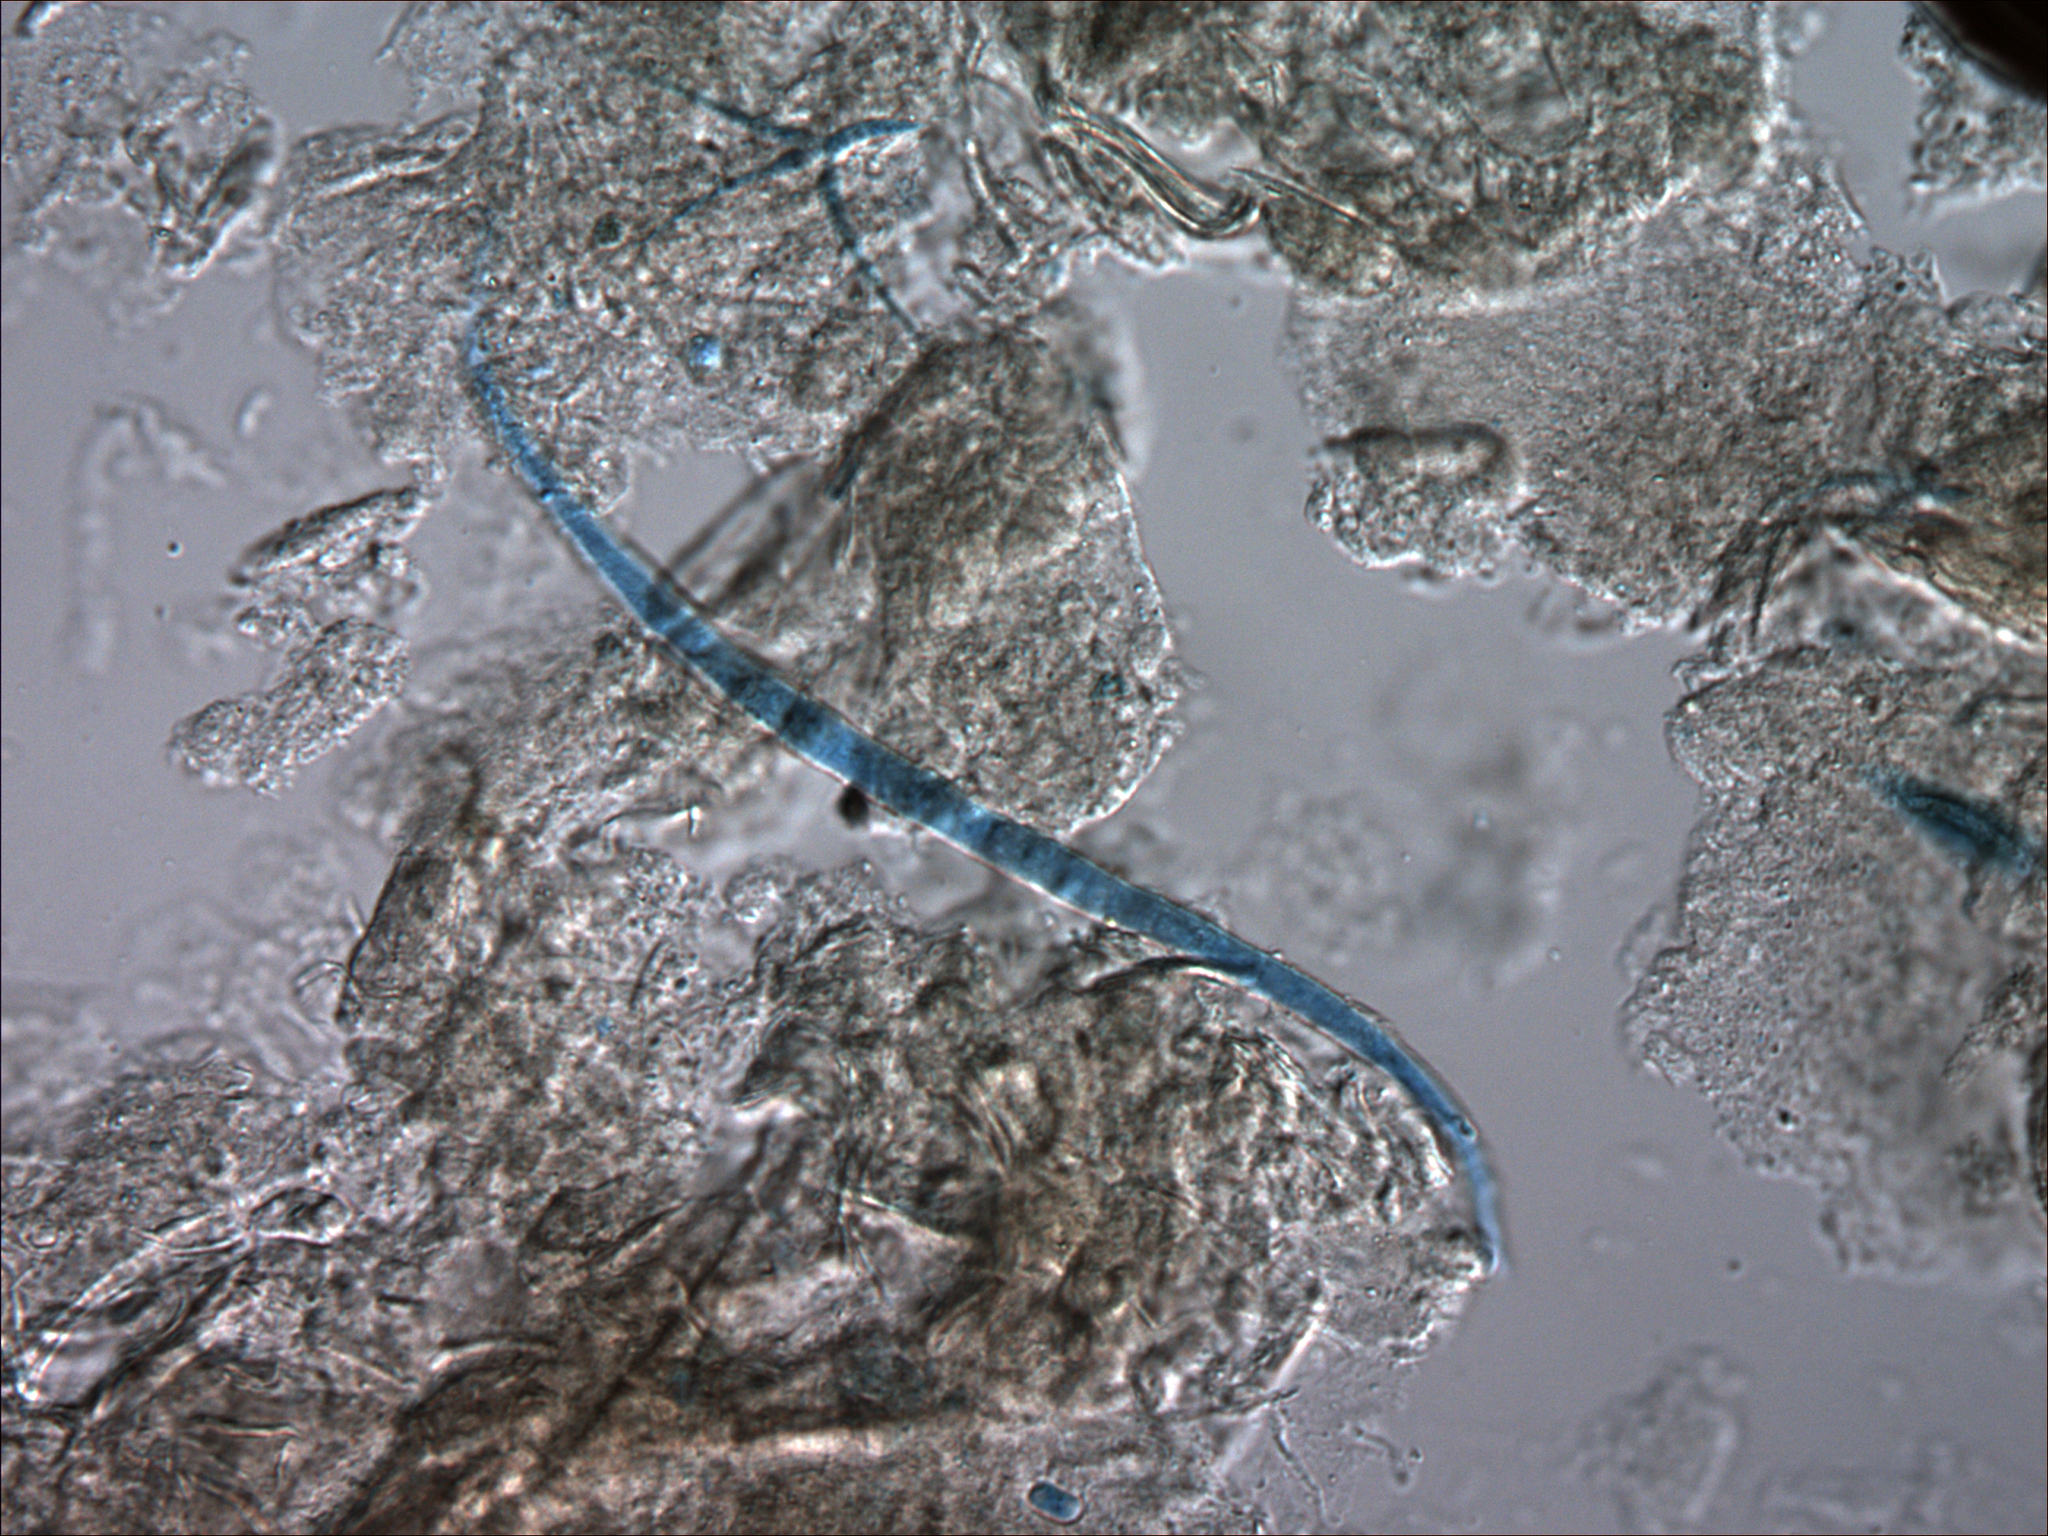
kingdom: Fungi
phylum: Ascomycota
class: Dothideomycetes
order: Pleosporales
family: Amniculicolaceae
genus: Amniculicola
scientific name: Amniculicola longissima
